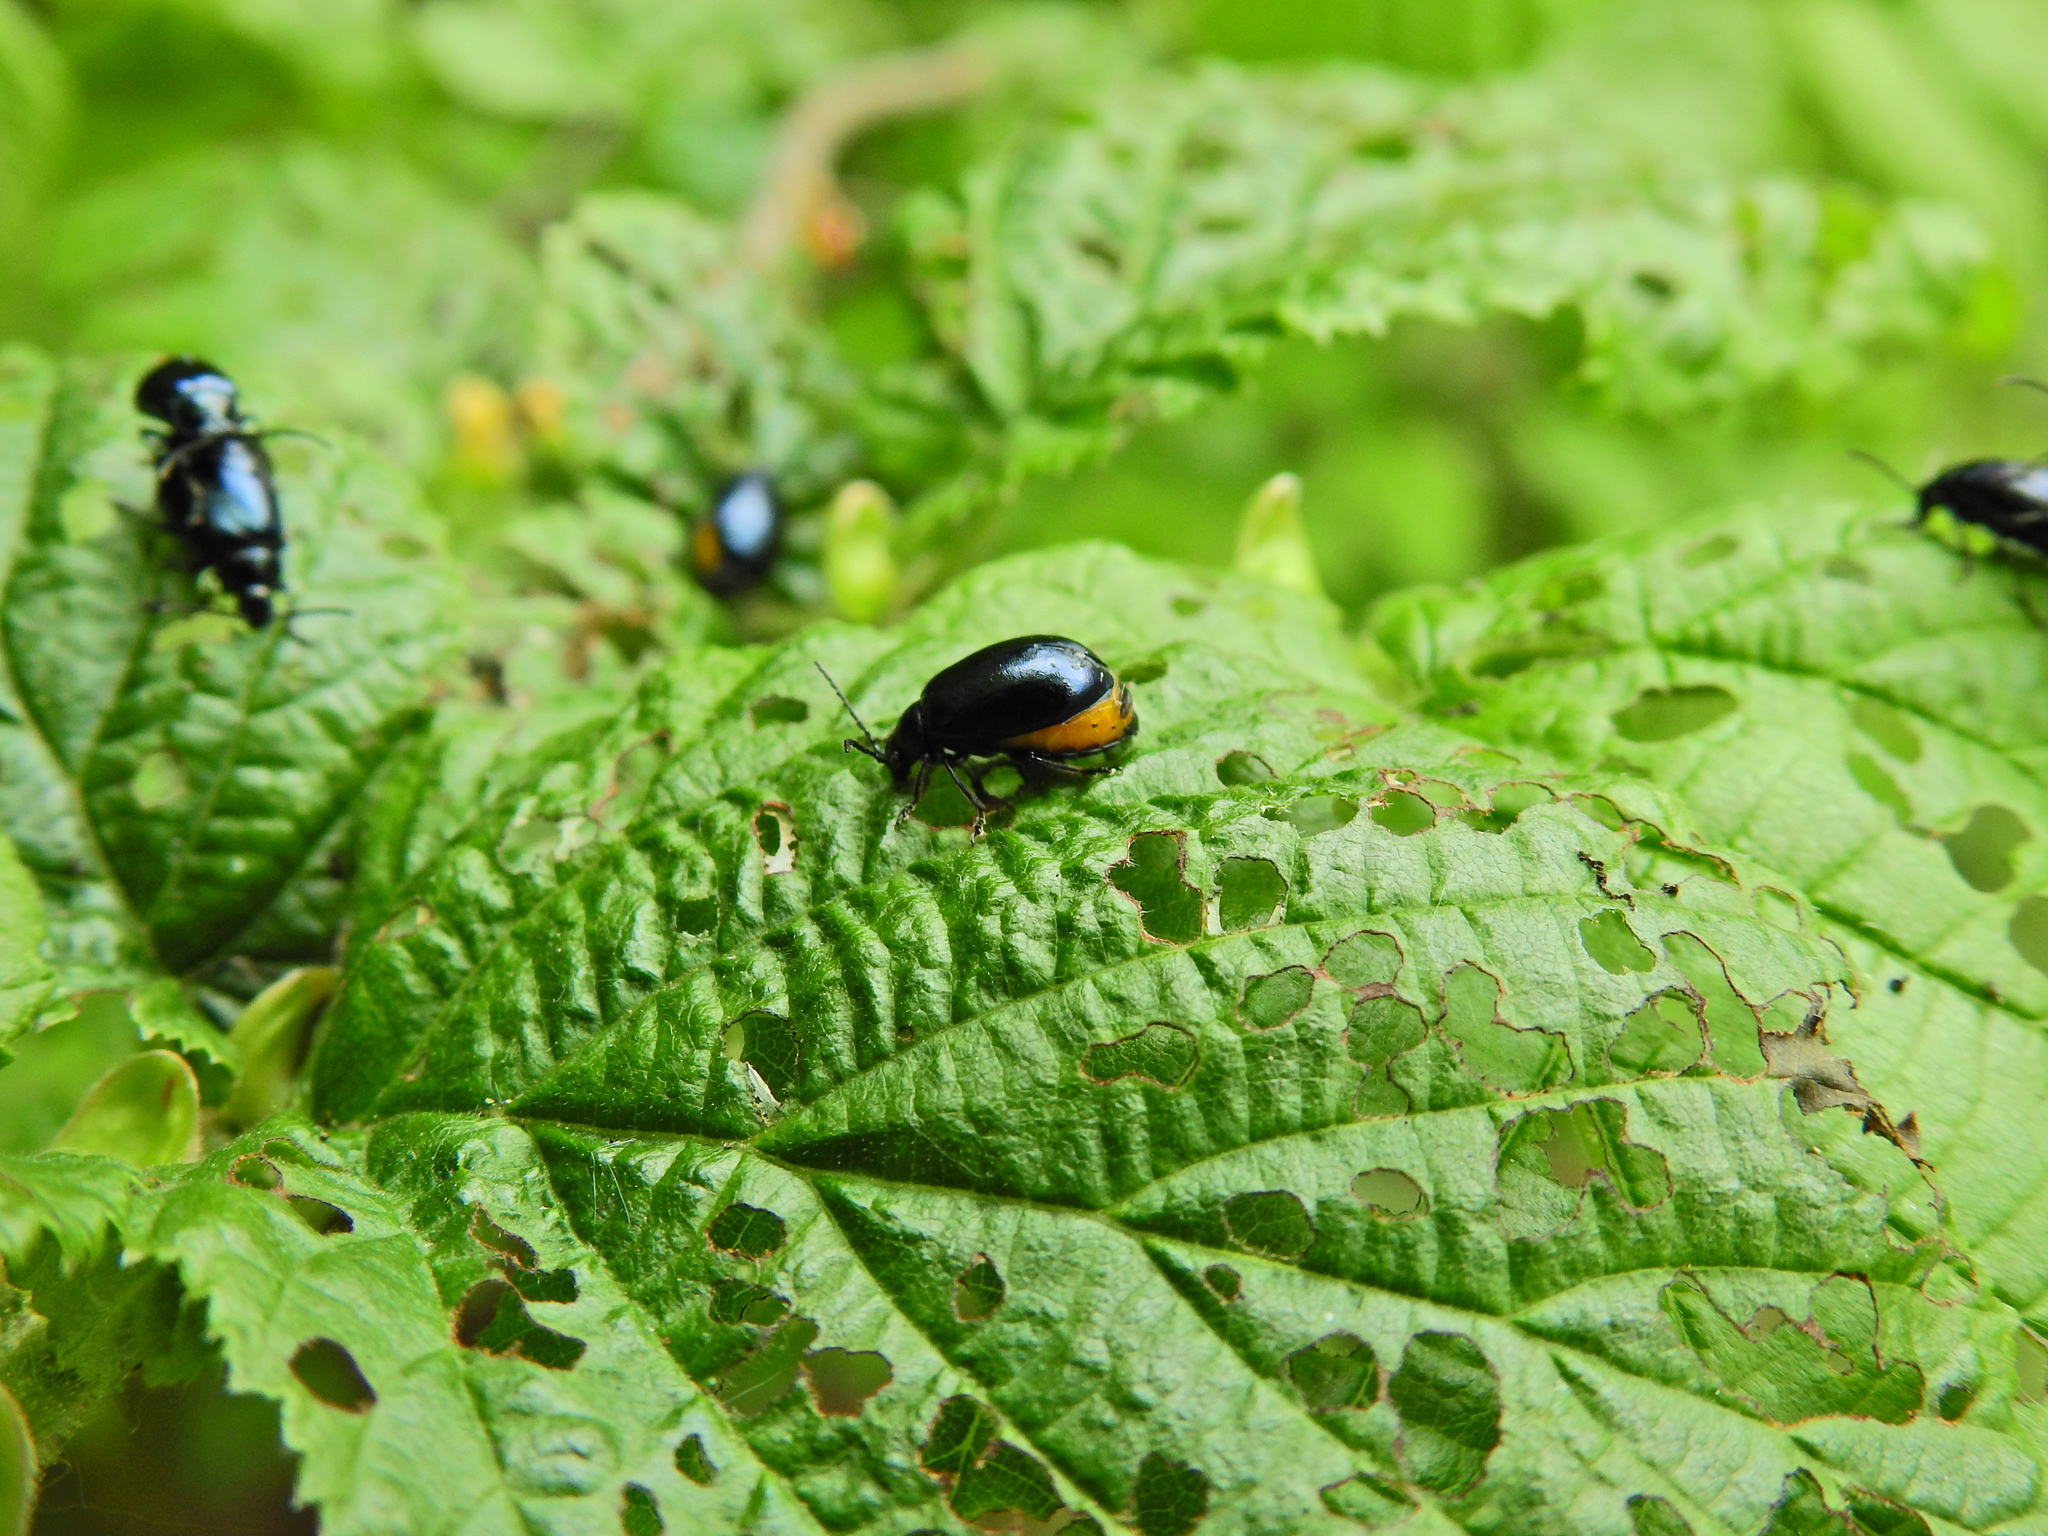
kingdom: Animalia
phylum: Arthropoda
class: Insecta
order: Coleoptera
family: Chrysomelidae
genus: Agelastica
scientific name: Agelastica alni
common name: Alder leaf beetle
